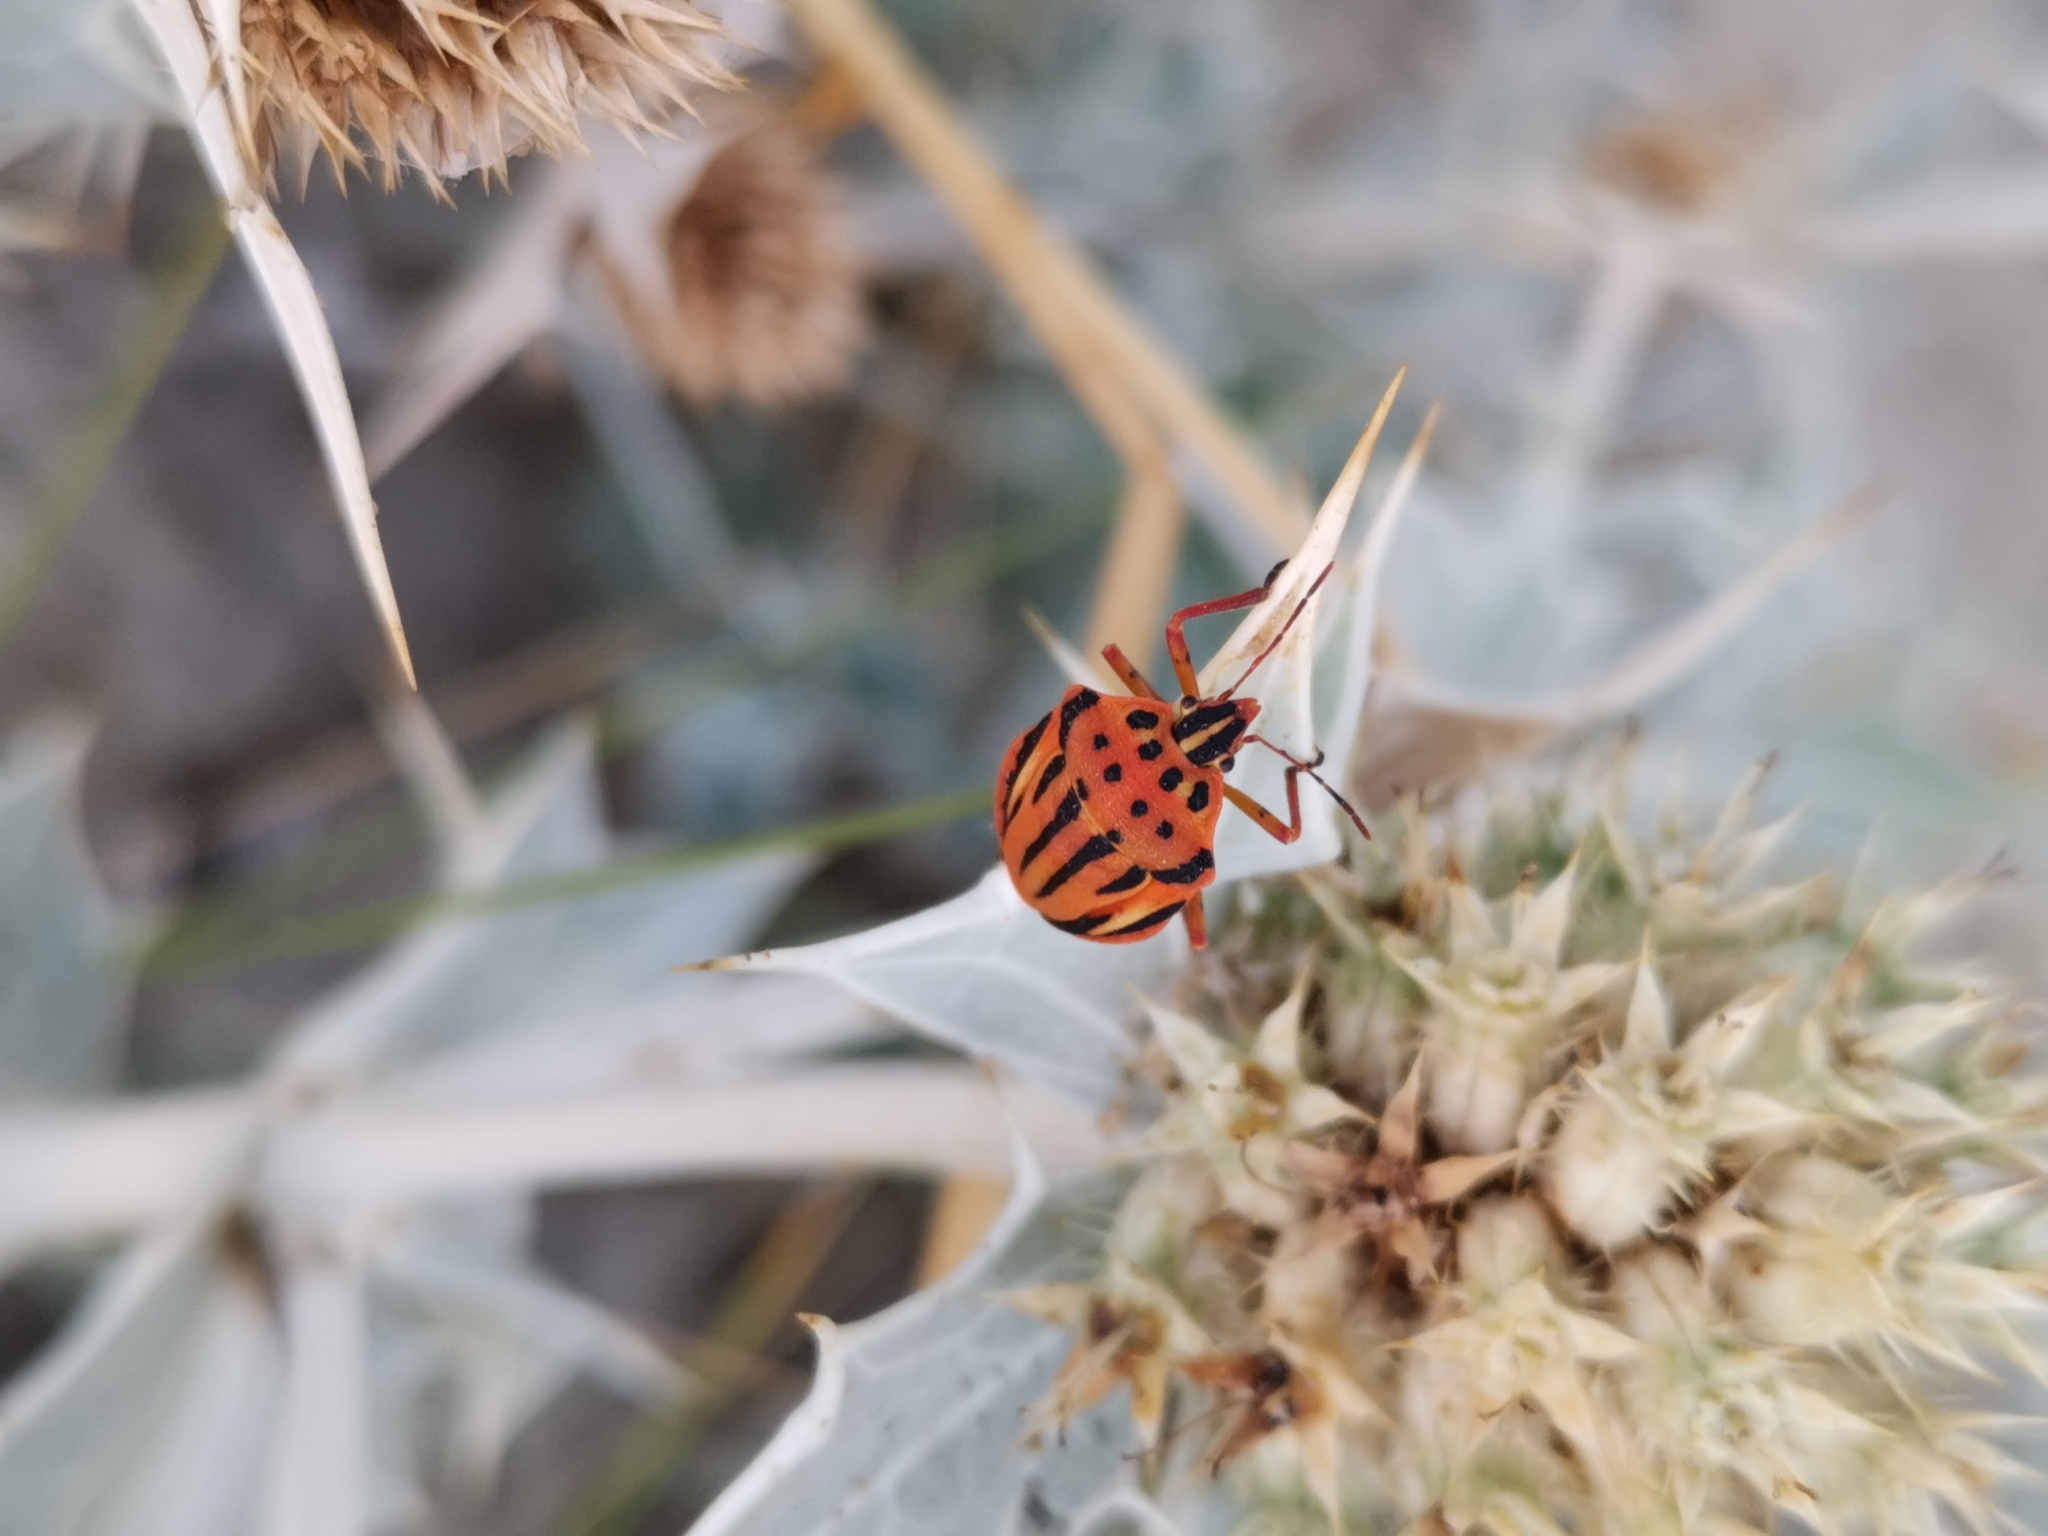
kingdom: Animalia
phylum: Arthropoda
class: Insecta
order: Hemiptera
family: Pentatomidae
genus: Graphosoma
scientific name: Graphosoma semipunctatum
